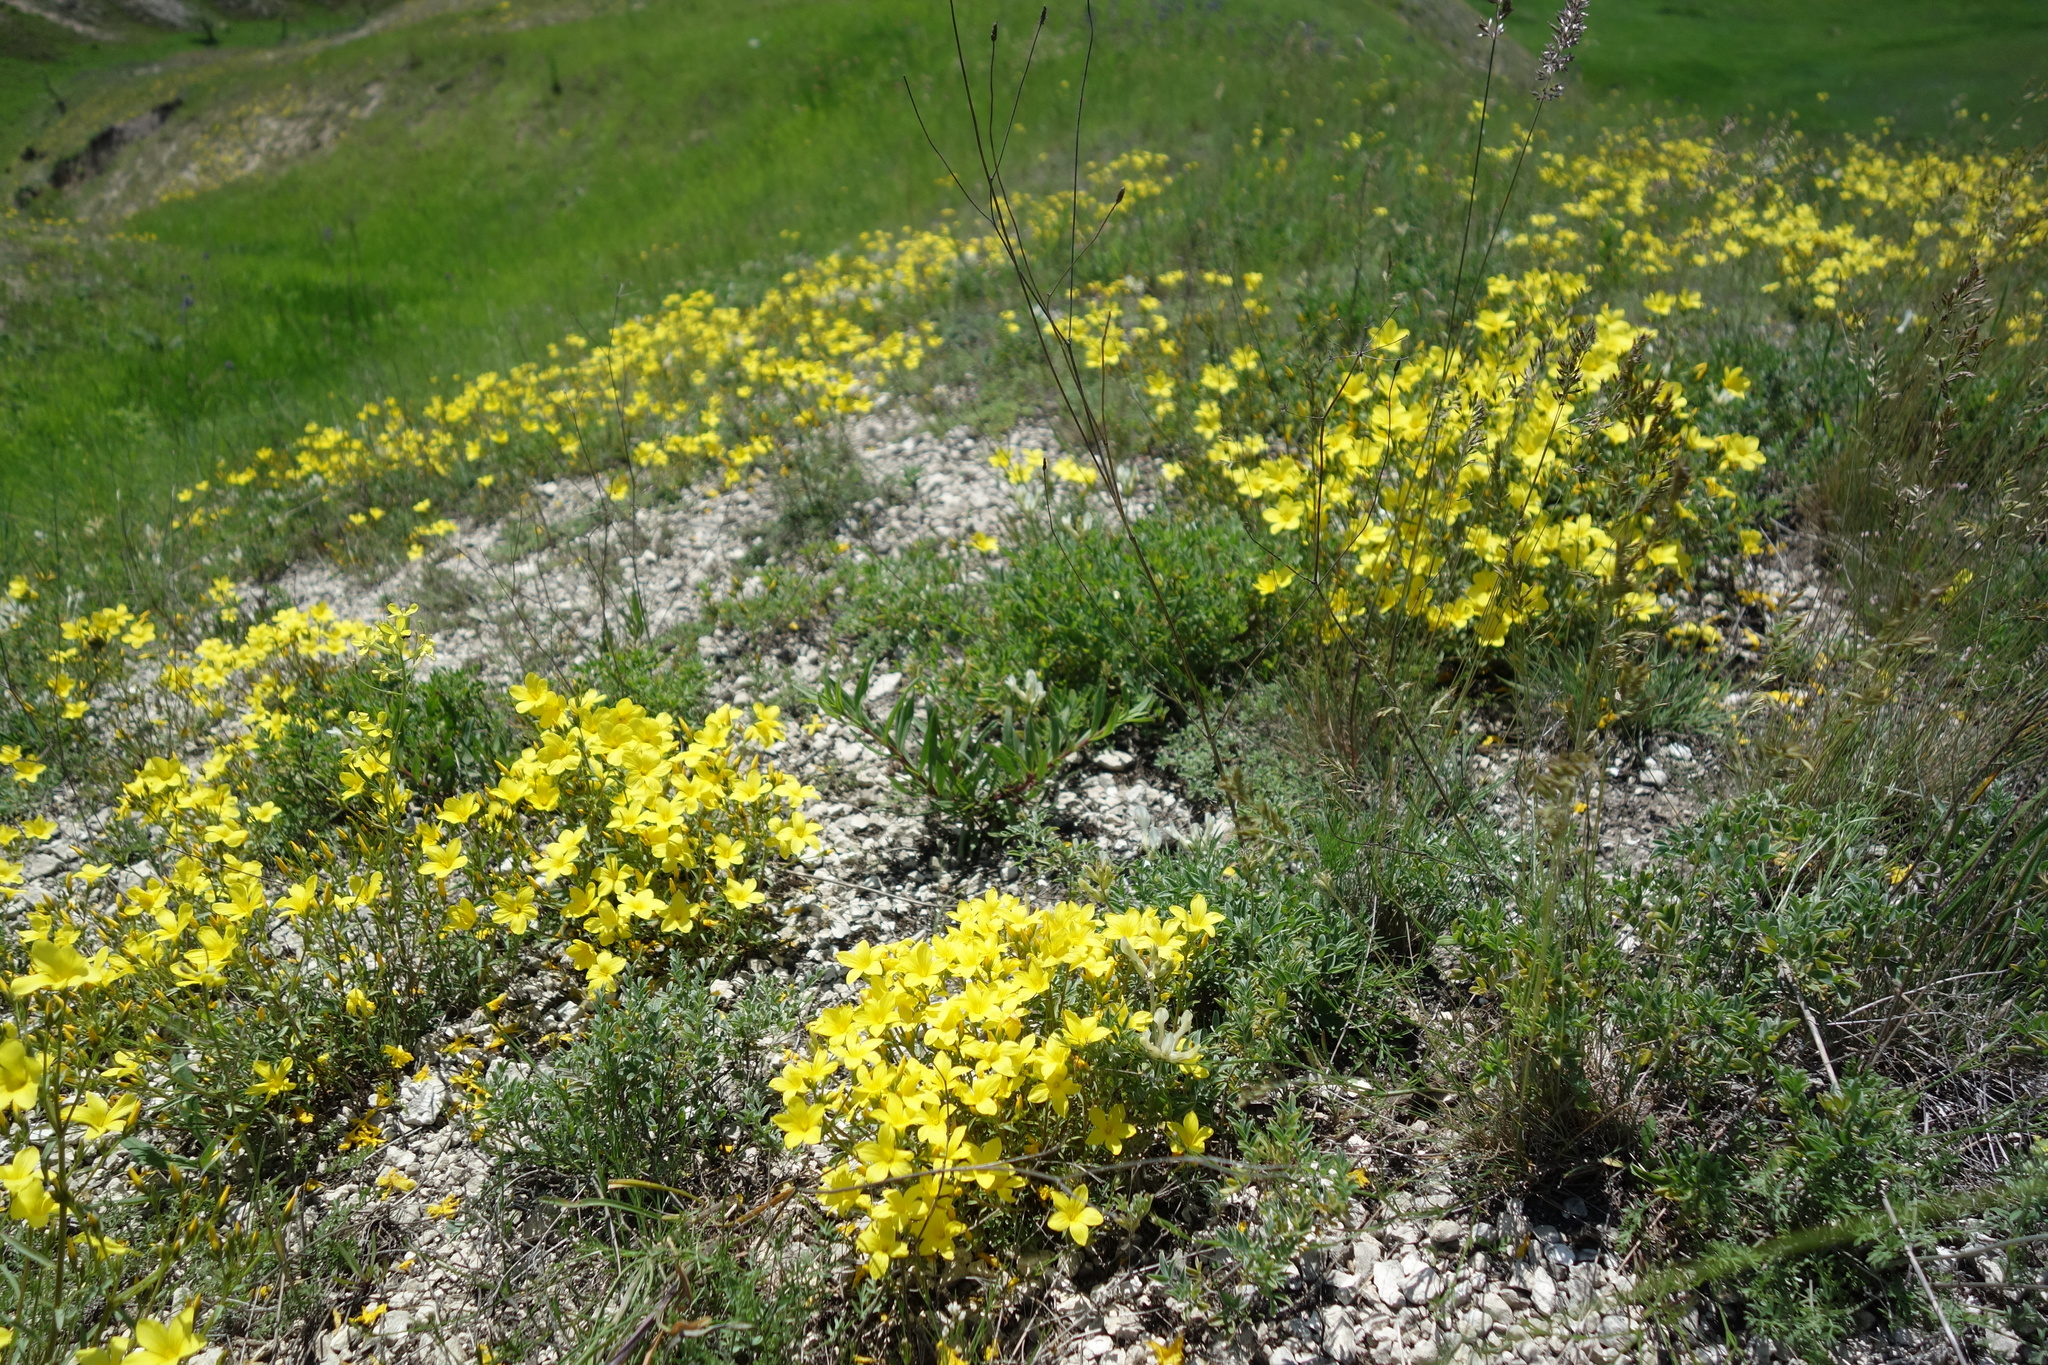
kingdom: Plantae
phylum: Tracheophyta
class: Magnoliopsida
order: Malpighiales
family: Linaceae
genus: Linum
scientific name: Linum ucranicum
